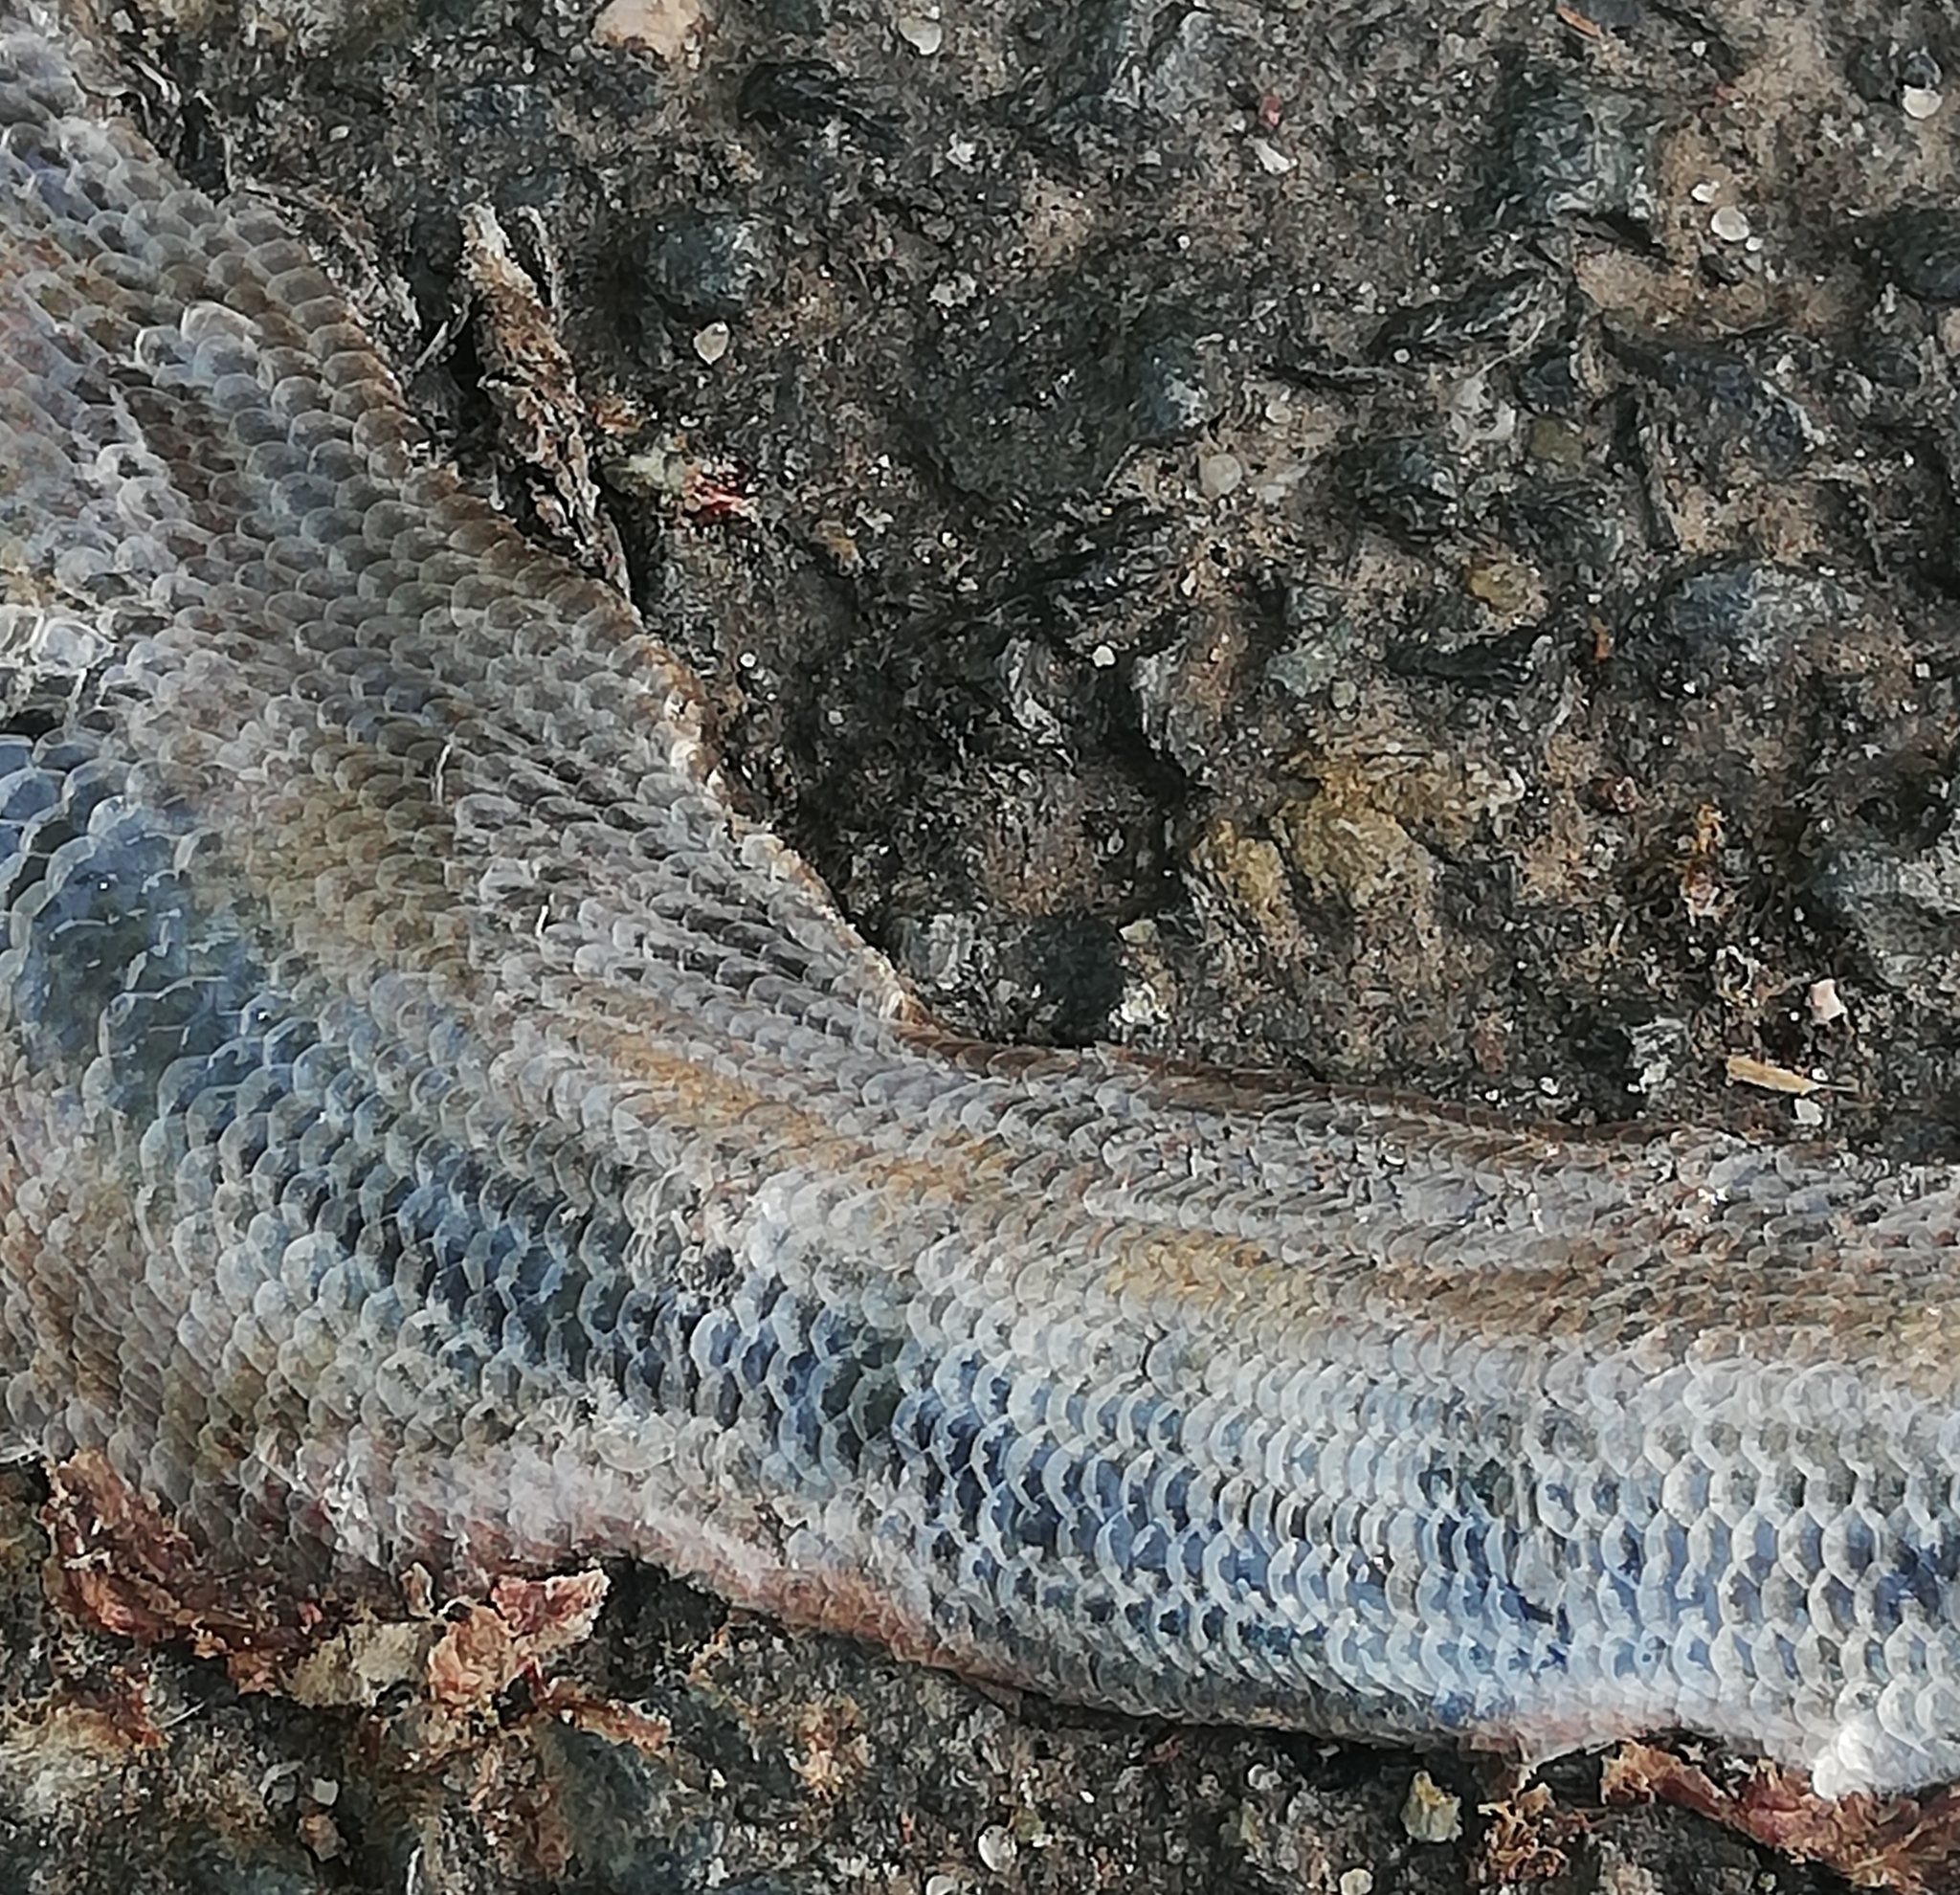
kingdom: Animalia
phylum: Chordata
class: Squamata
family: Anguidae
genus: Anguis
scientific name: Anguis fragilis
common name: Slow worm
